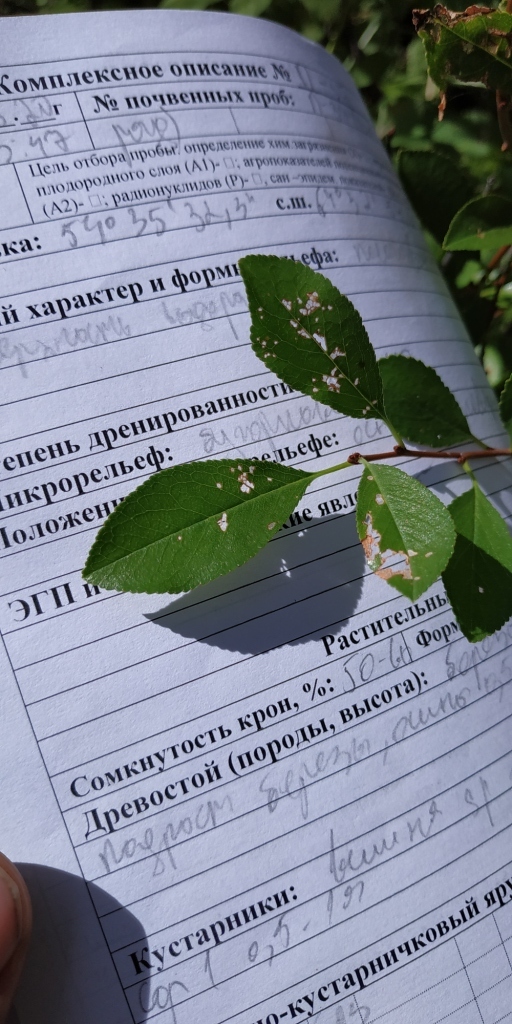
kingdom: Plantae
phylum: Tracheophyta
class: Magnoliopsida
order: Rosales
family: Rosaceae
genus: Prunus
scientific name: Prunus fruticosa
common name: European dwarf cherry
